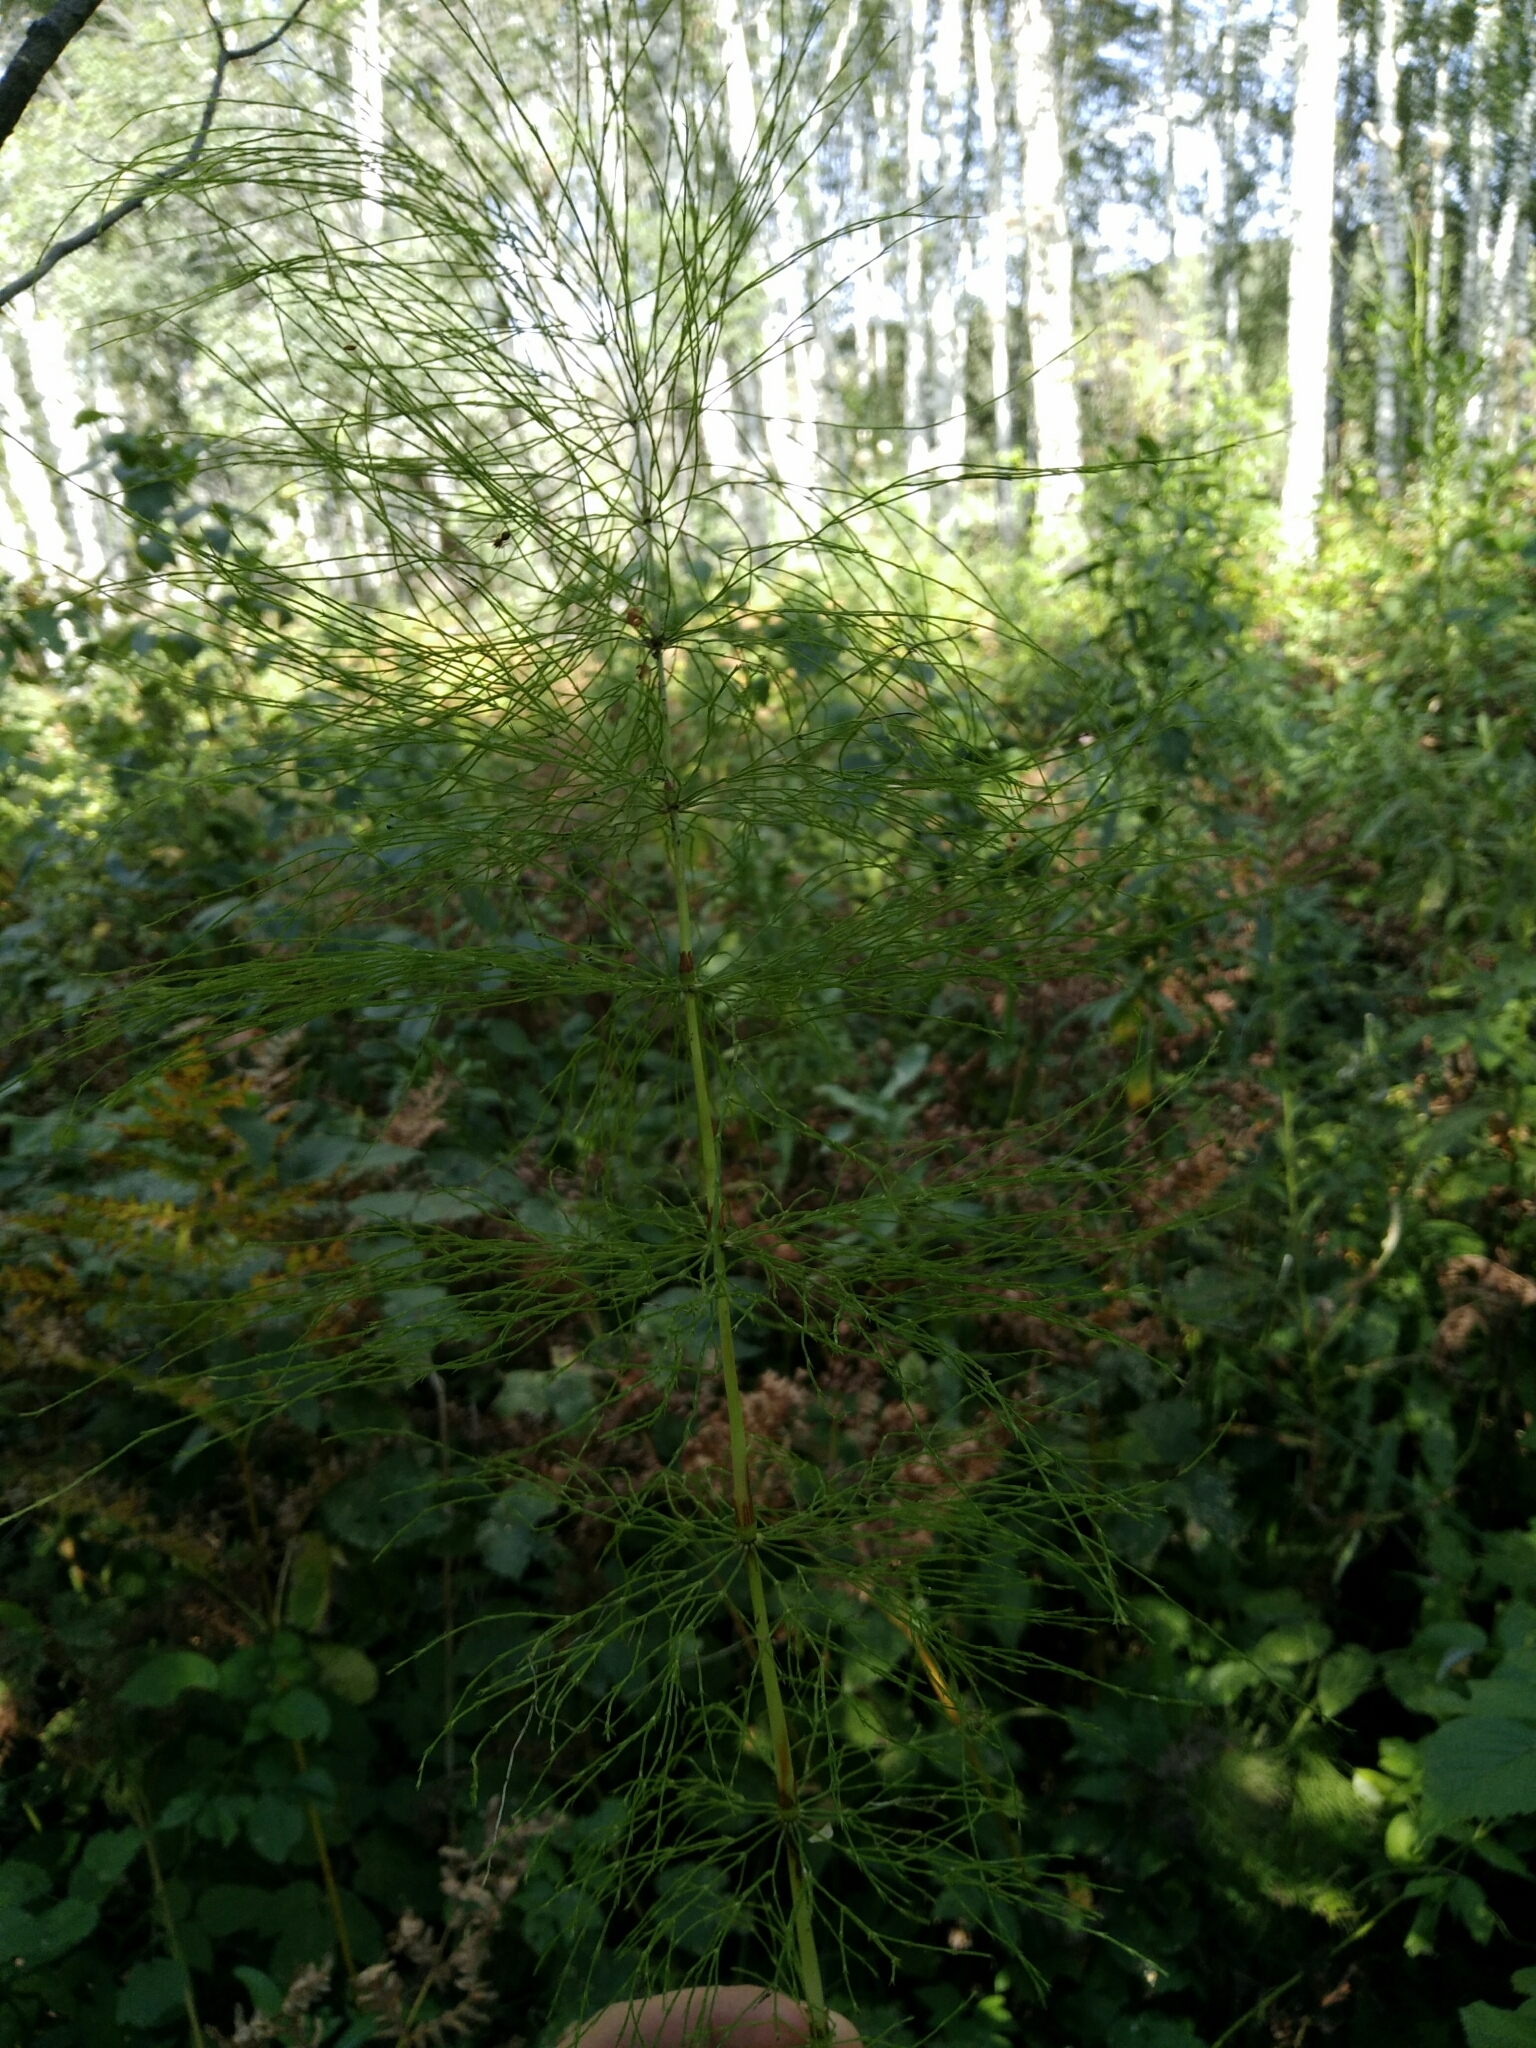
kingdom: Plantae
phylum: Tracheophyta
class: Polypodiopsida
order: Equisetales
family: Equisetaceae
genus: Equisetum
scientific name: Equisetum sylvaticum
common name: Wood horsetail
